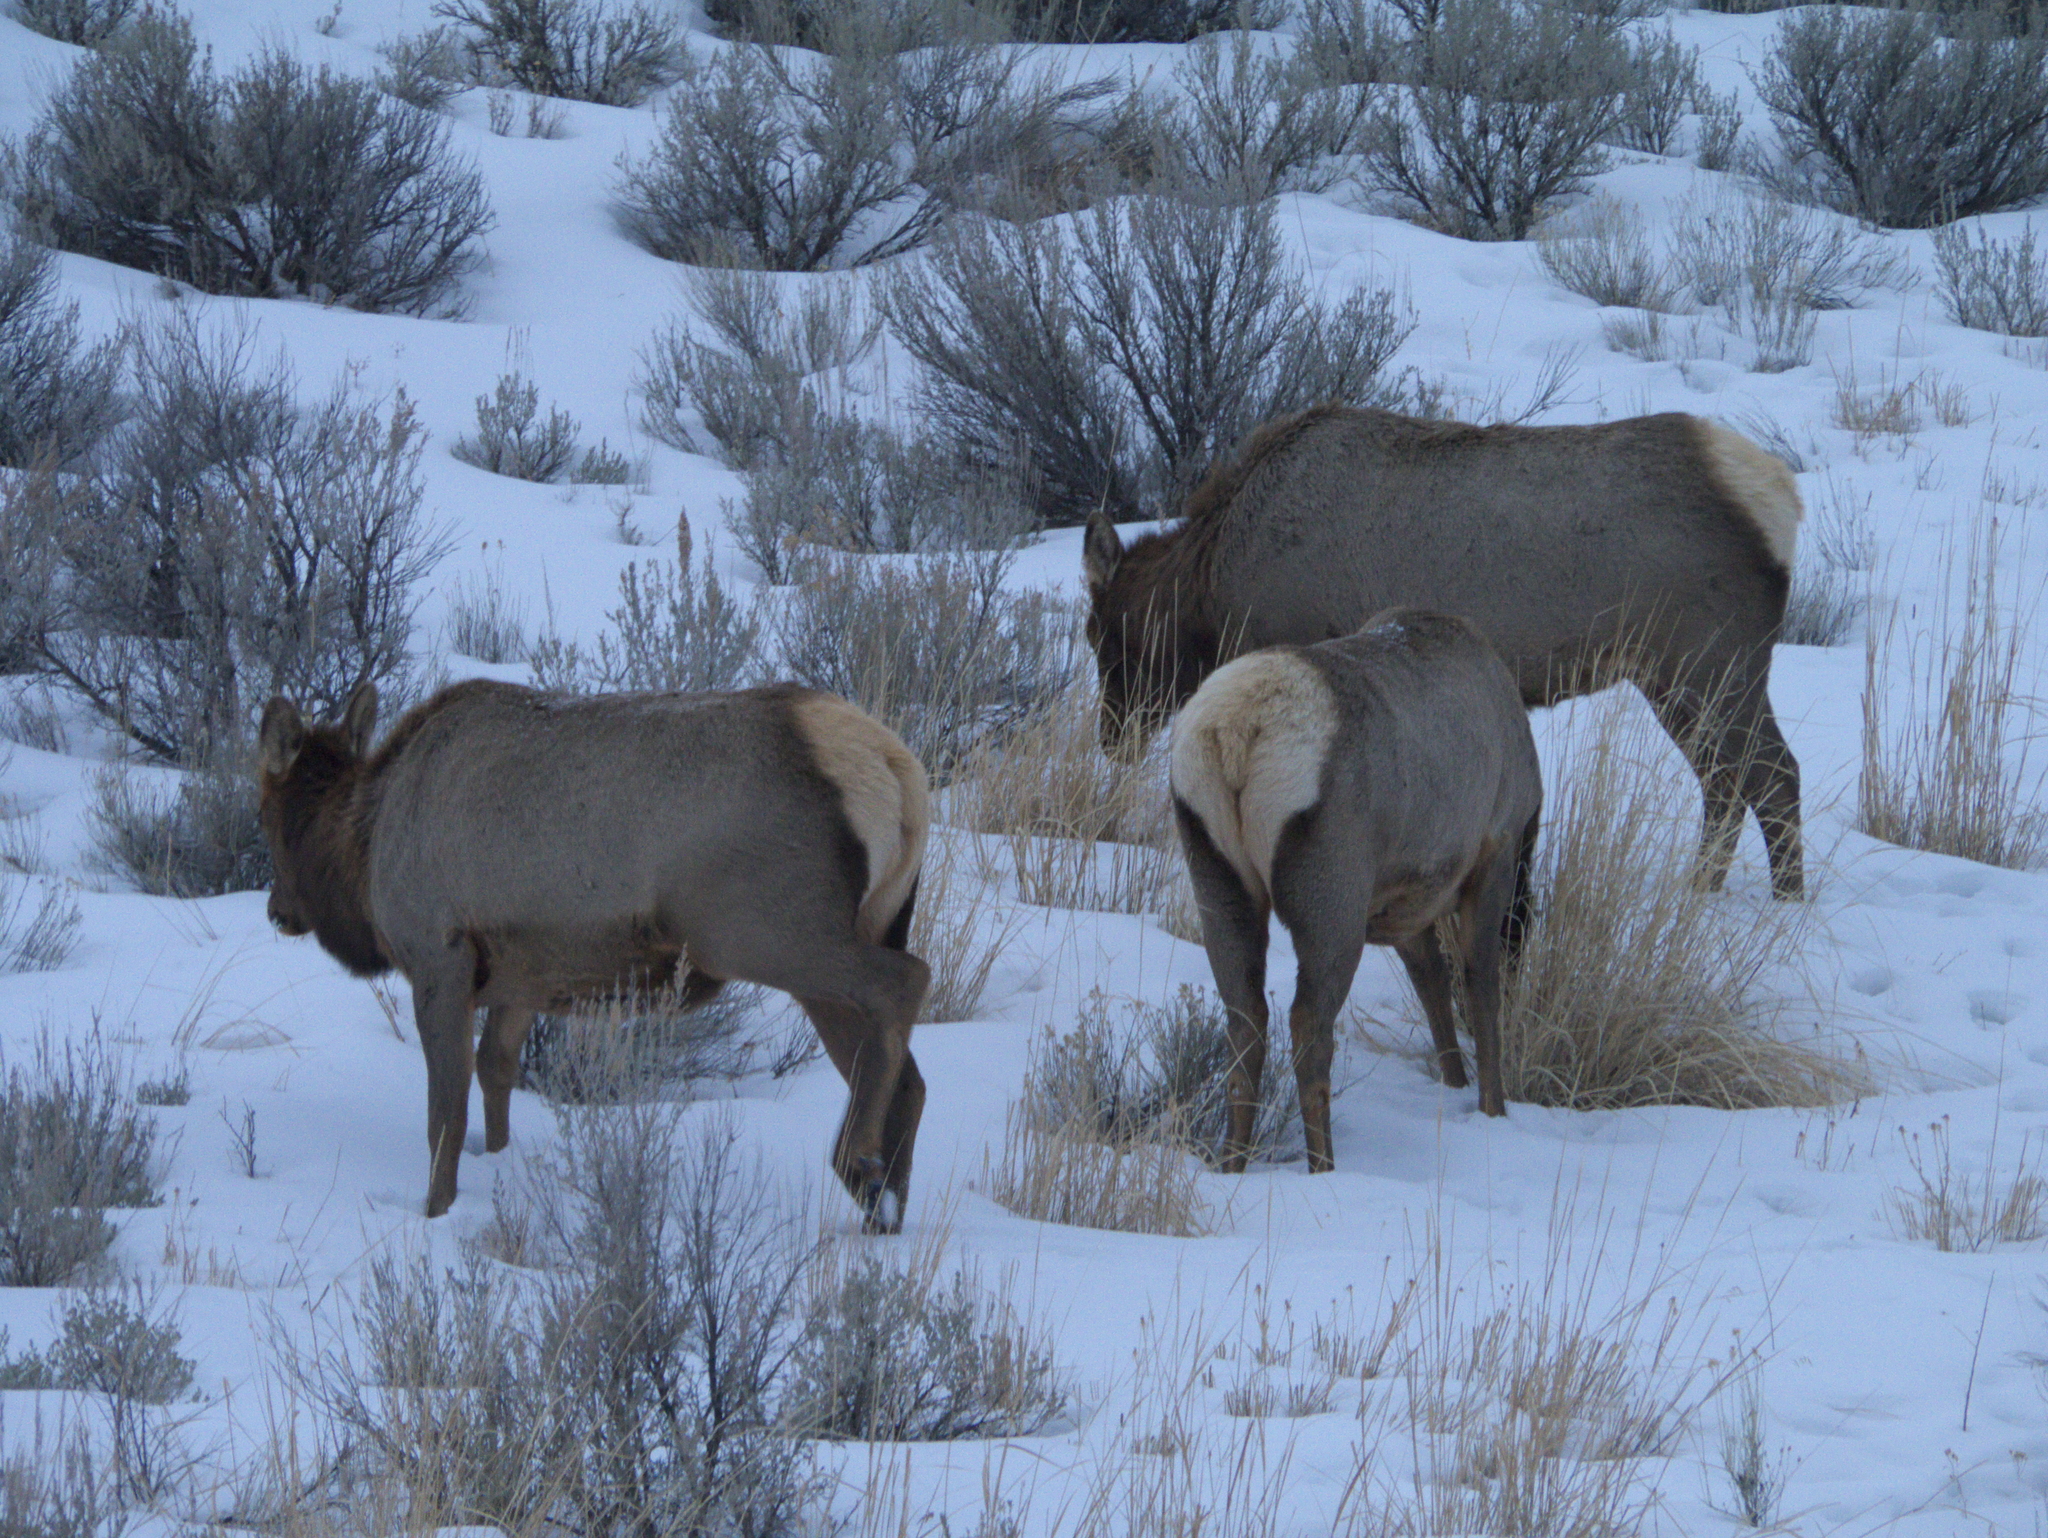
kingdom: Animalia
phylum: Chordata
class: Mammalia
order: Artiodactyla
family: Cervidae
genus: Cervus
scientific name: Cervus elaphus
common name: Red deer
